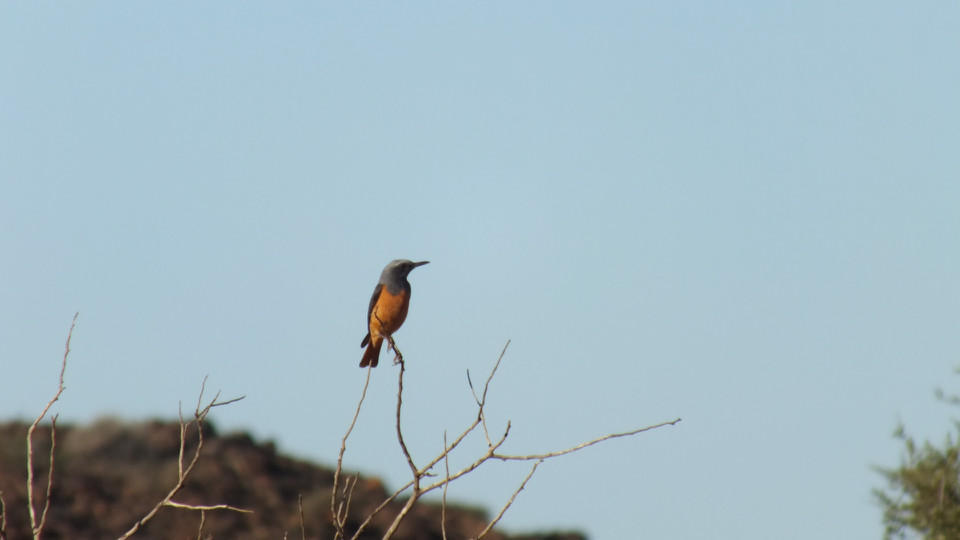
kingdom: Animalia
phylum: Chordata
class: Aves
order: Passeriformes
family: Muscicapidae
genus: Monticola
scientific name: Monticola brevipes
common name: Short-toed rock thrush
